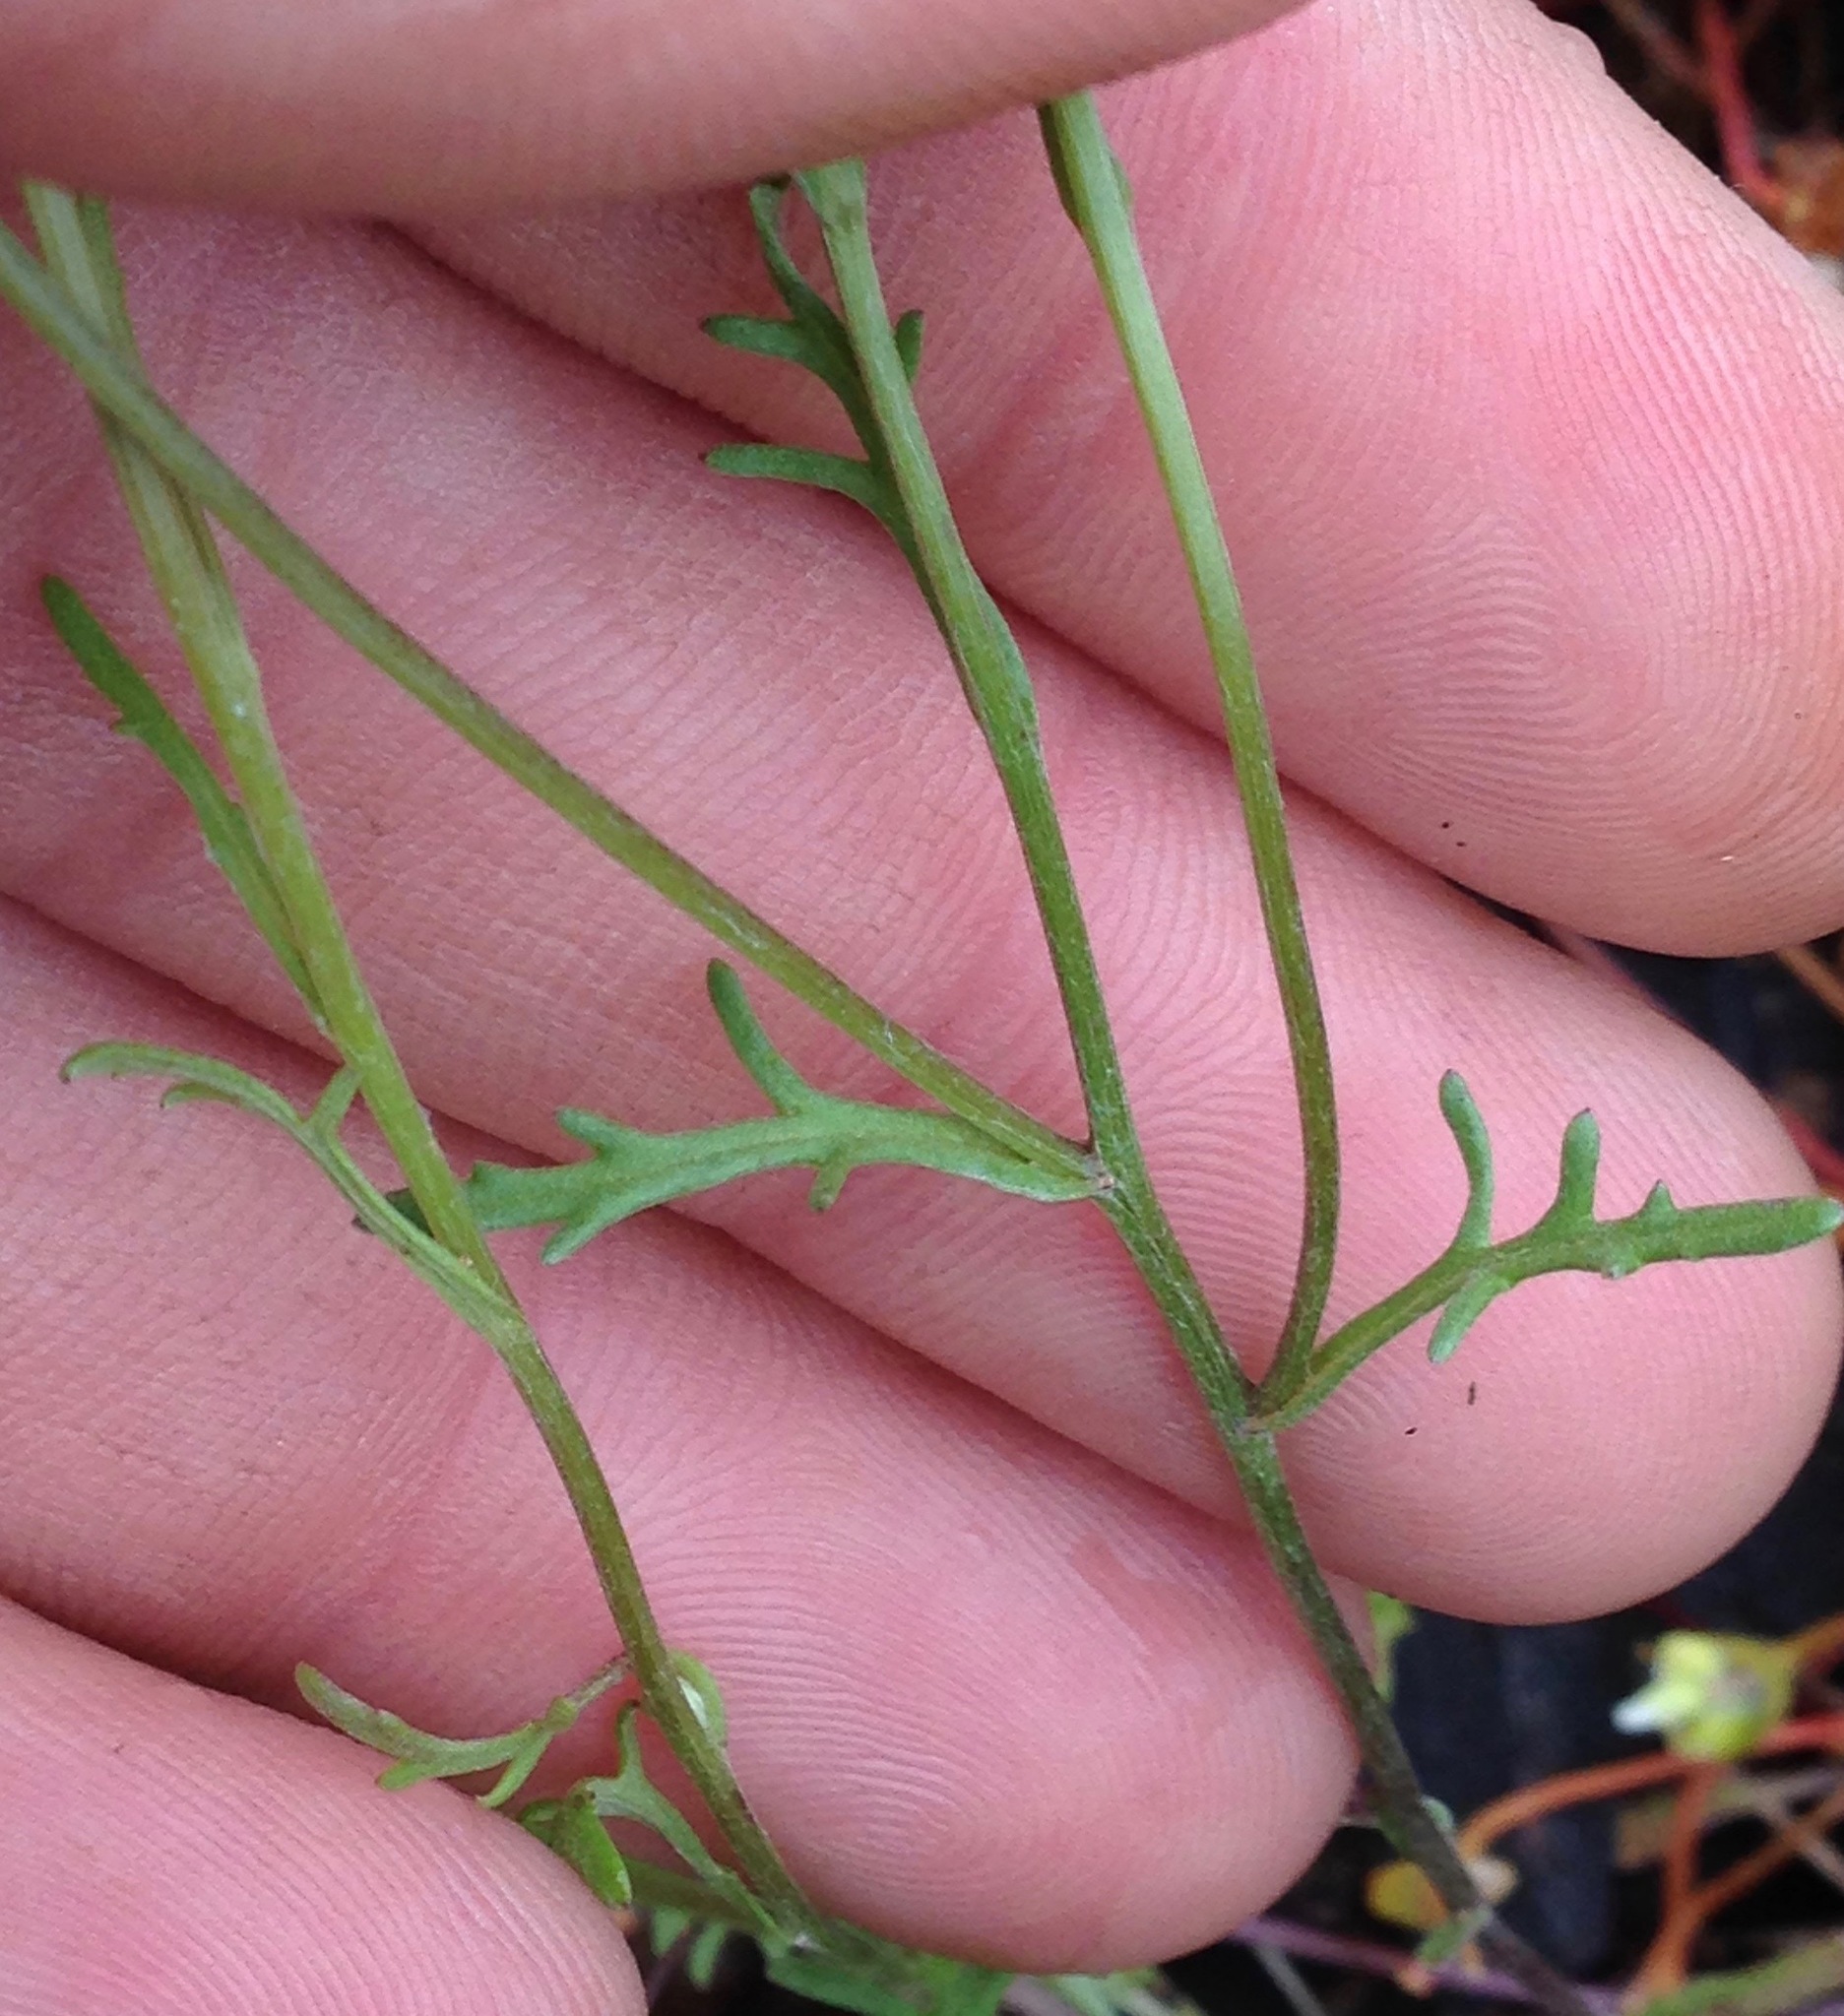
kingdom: Plantae
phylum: Tracheophyta
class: Magnoliopsida
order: Asterales
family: Asteraceae
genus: Eriophyllum
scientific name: Eriophyllum lanatum
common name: Common woolly-sunflower
